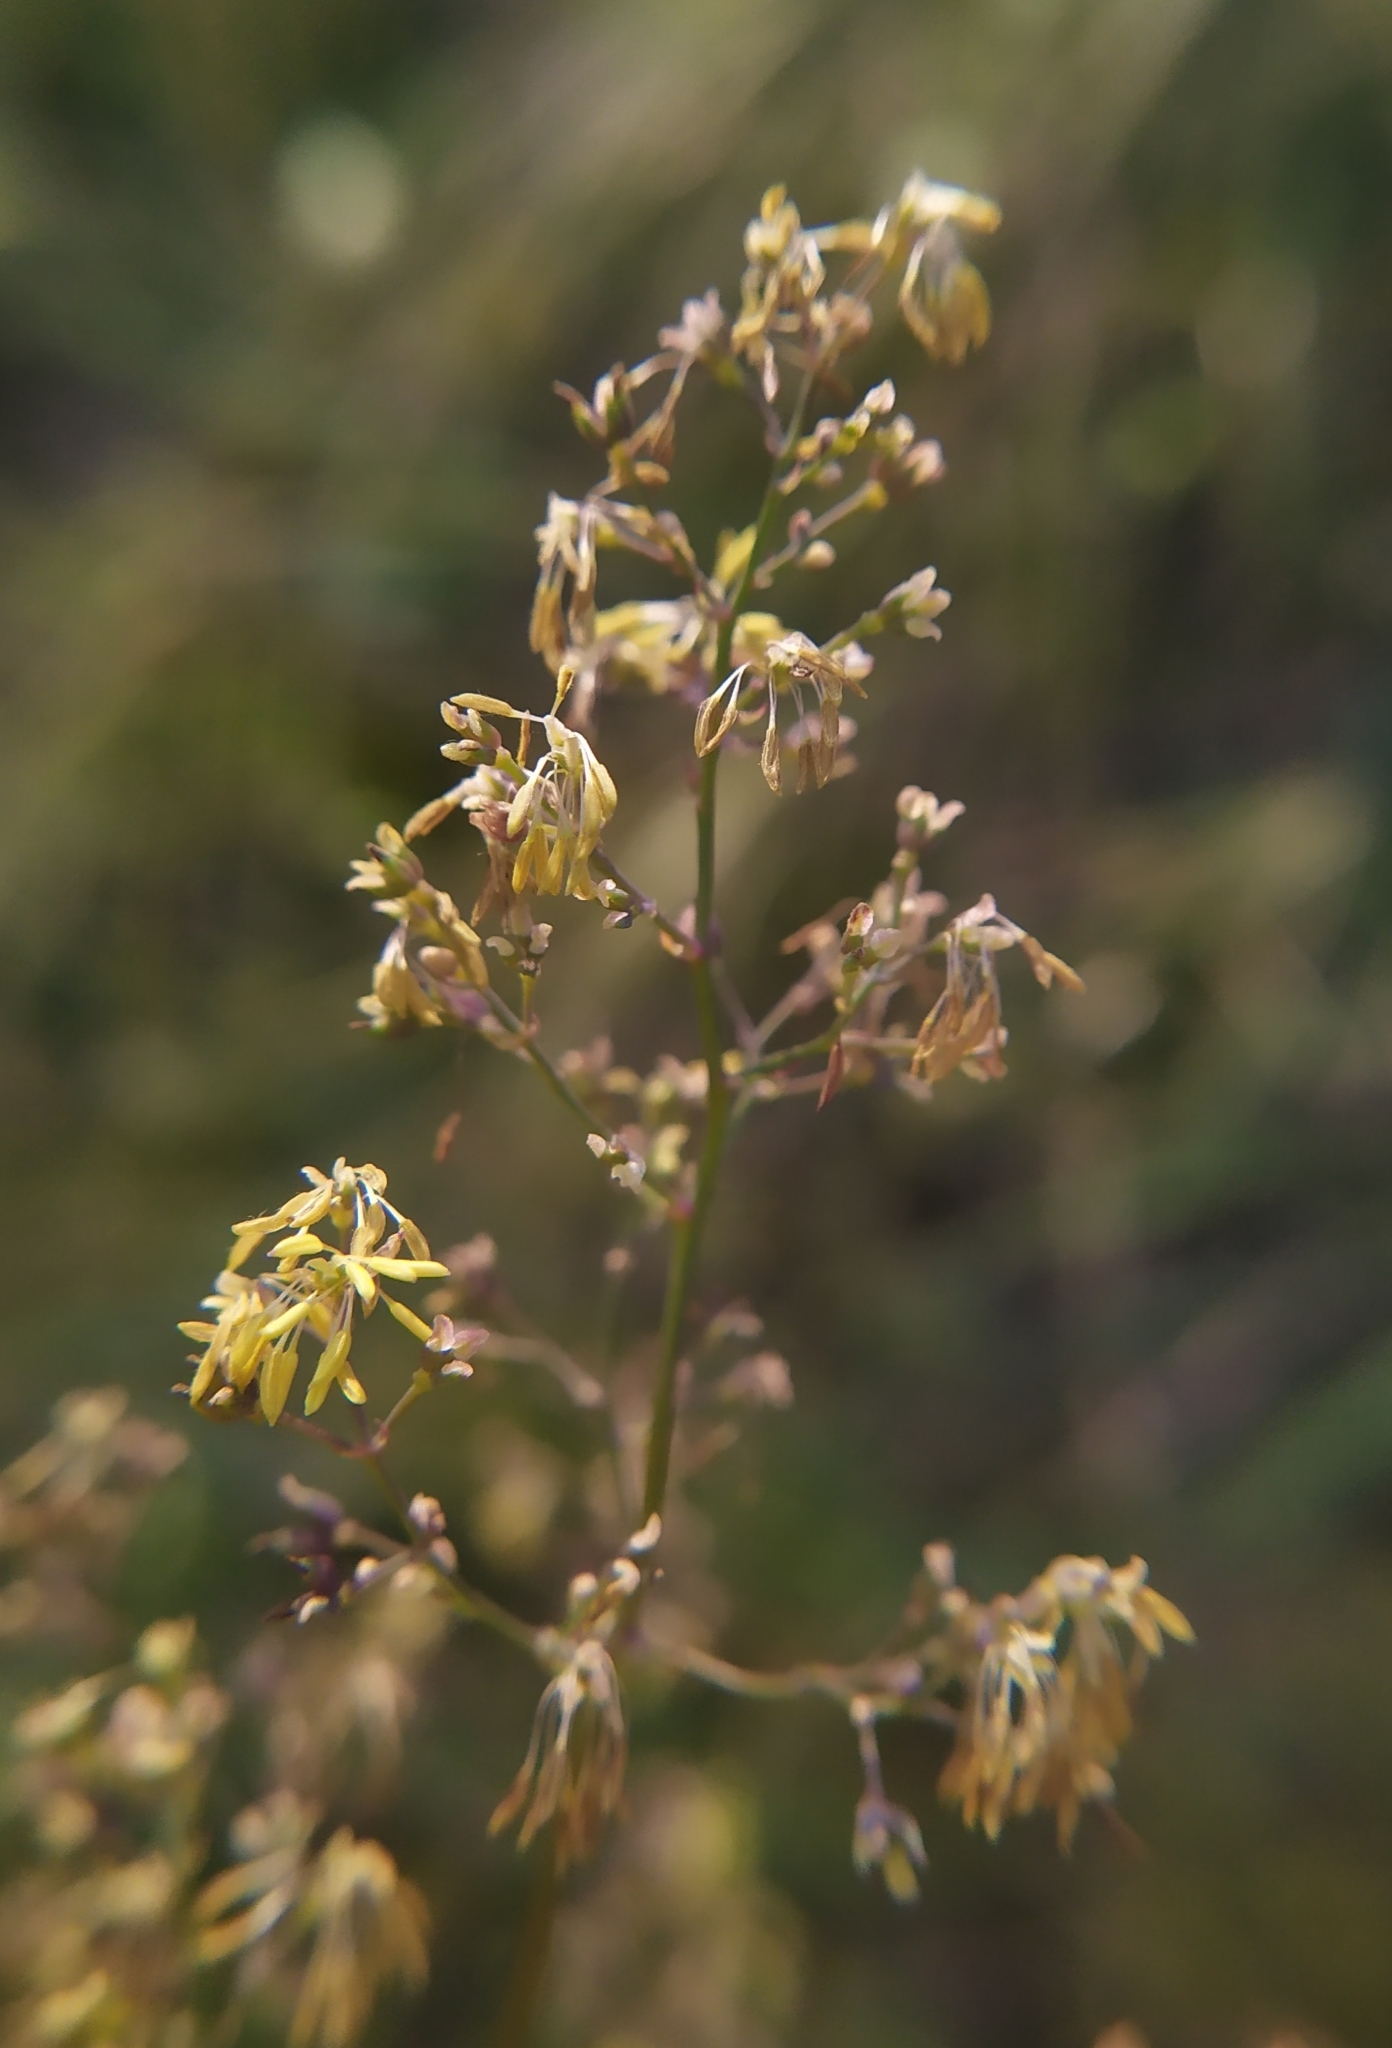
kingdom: Plantae
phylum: Tracheophyta
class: Magnoliopsida
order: Ranunculales
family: Ranunculaceae
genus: Thalictrum
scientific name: Thalictrum minus
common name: Lesser meadow-rue
